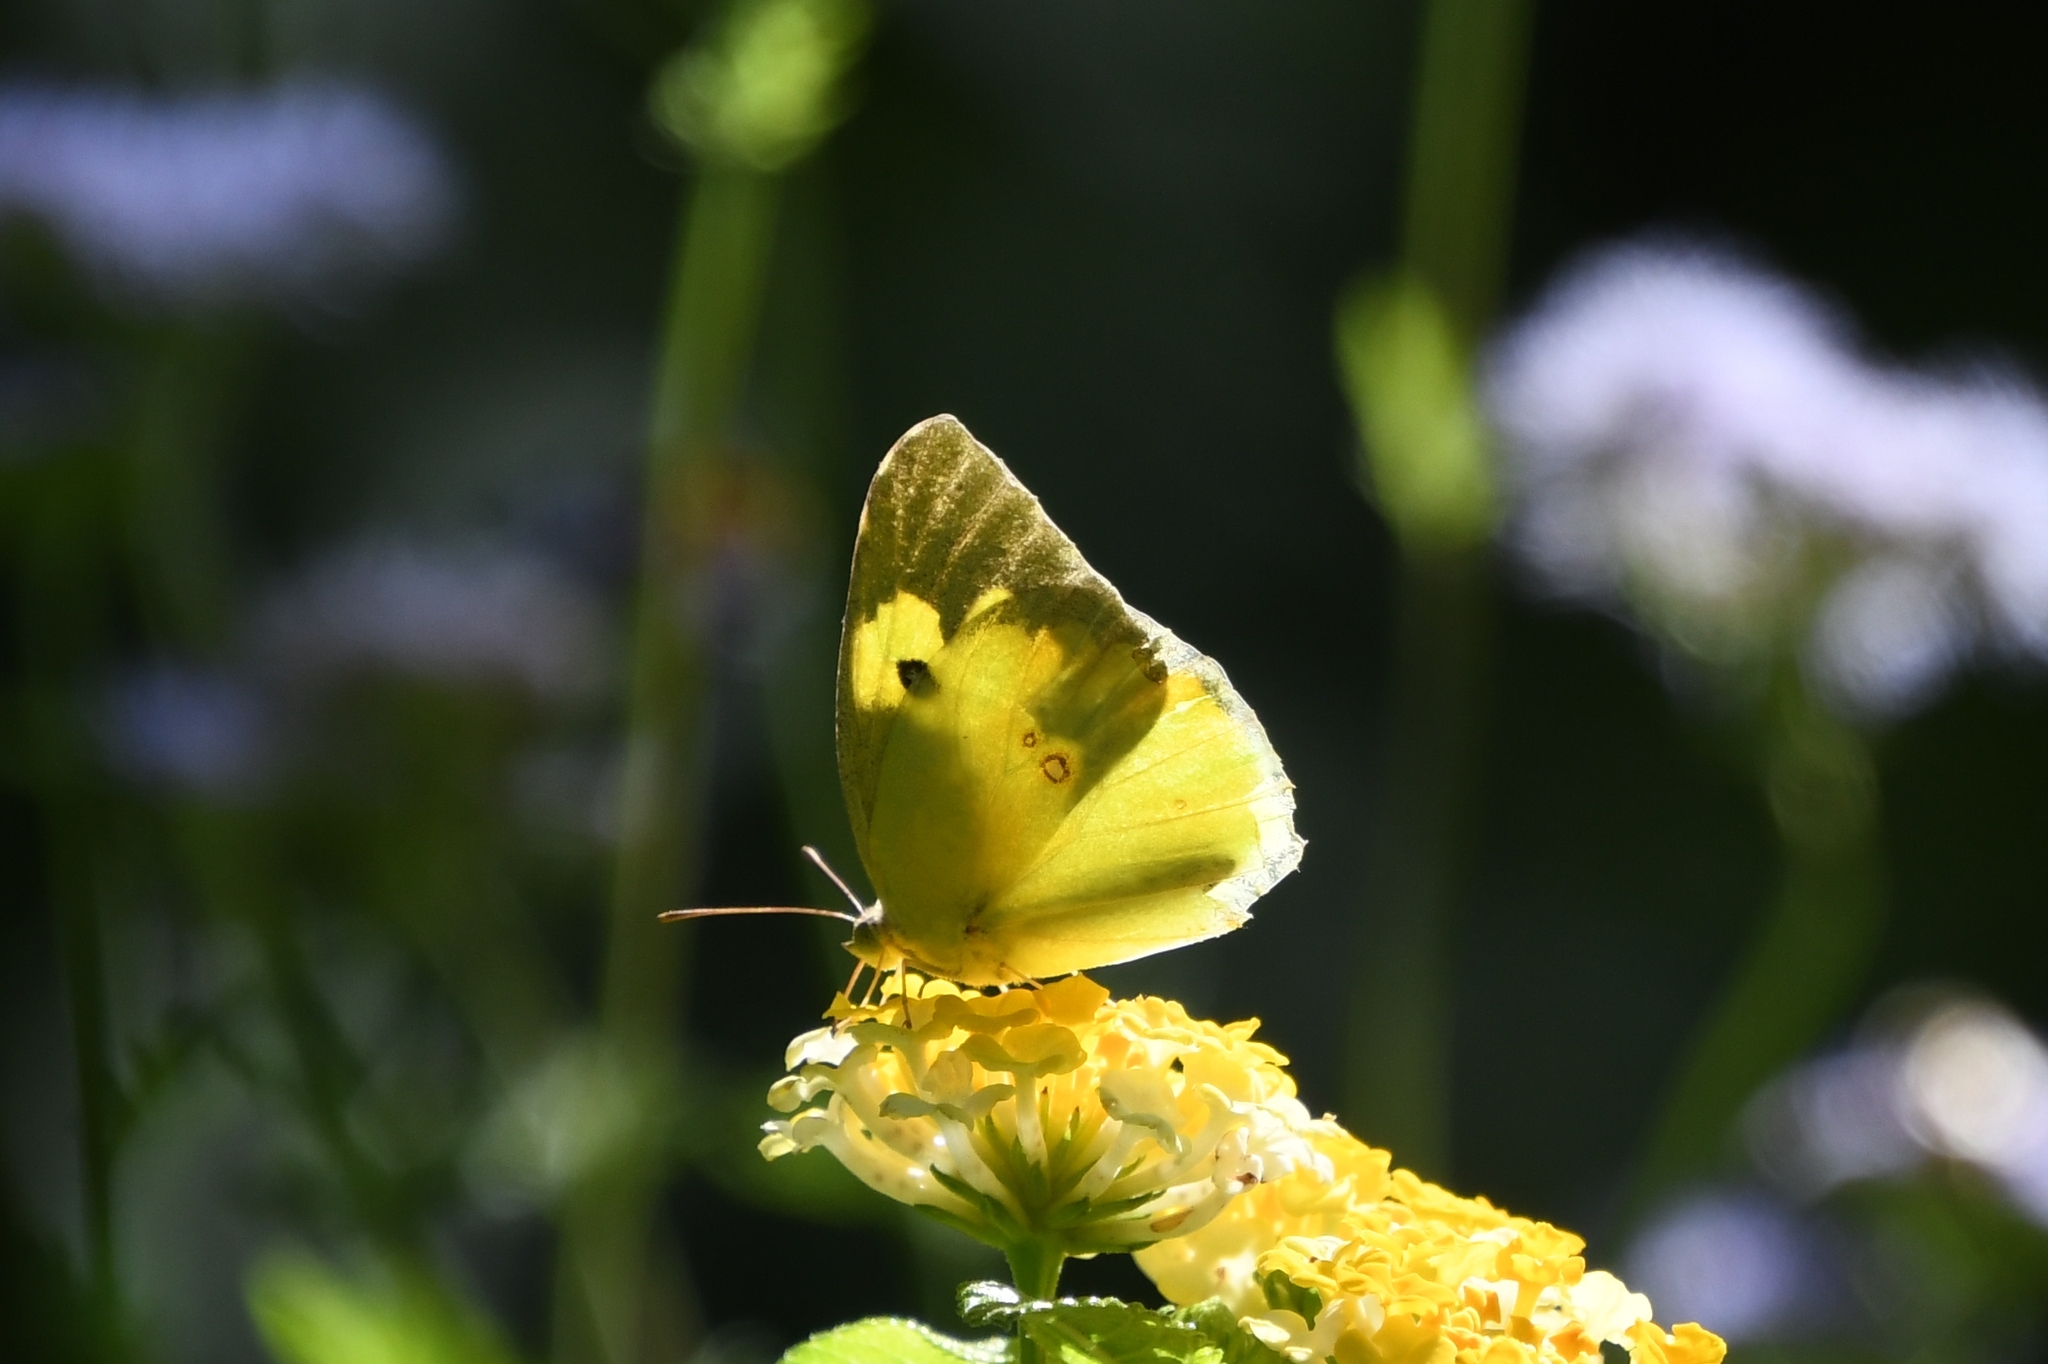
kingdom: Animalia
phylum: Arthropoda
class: Insecta
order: Lepidoptera
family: Pieridae
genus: Zerene
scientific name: Zerene cesonia
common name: Southern dogface
